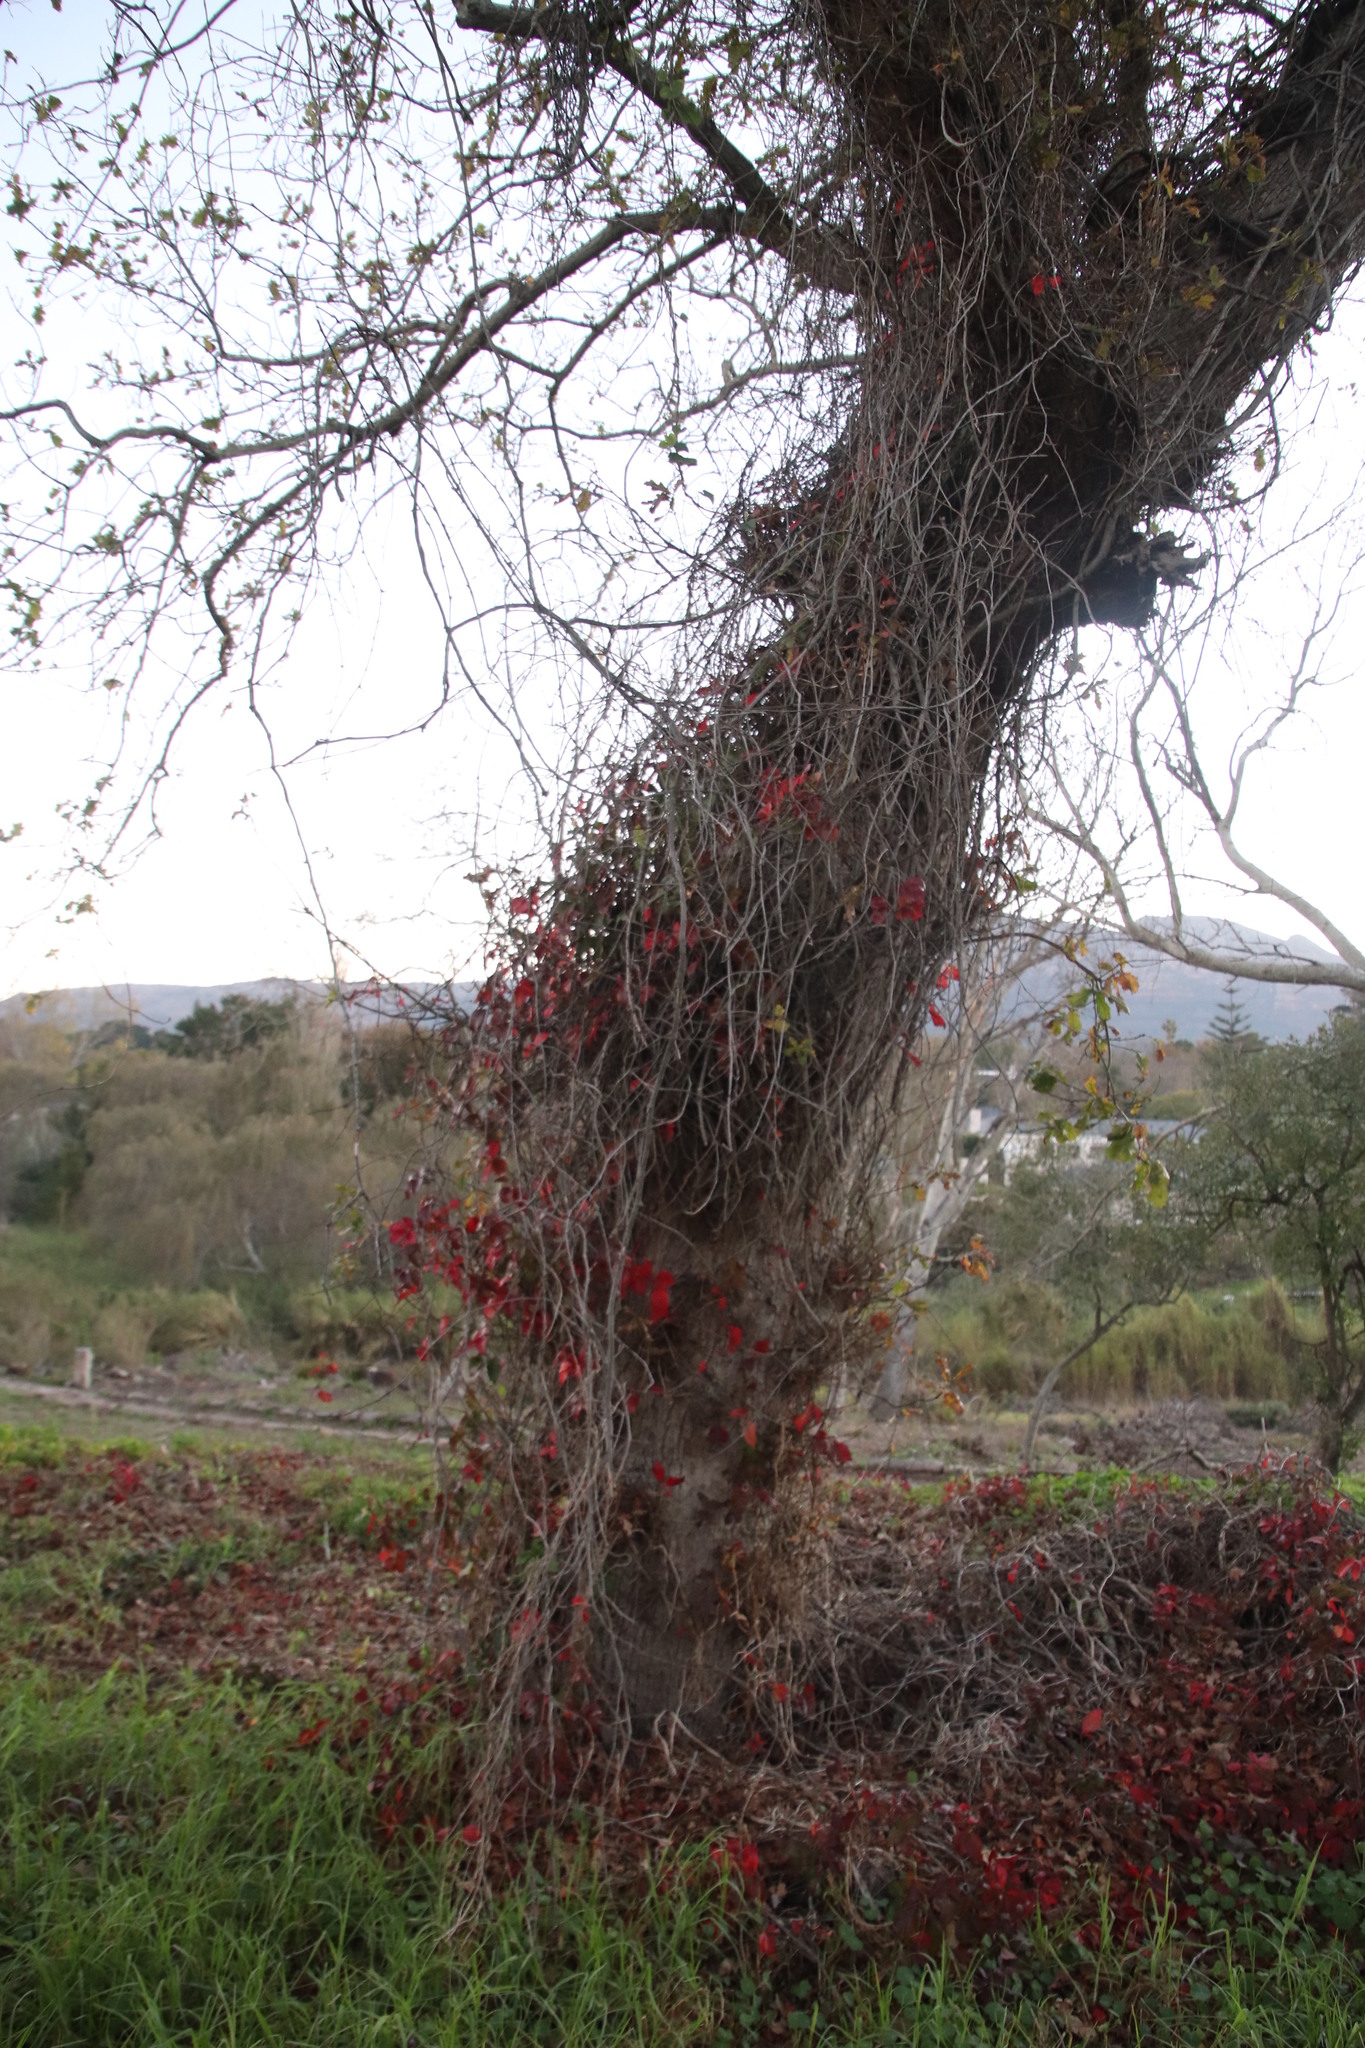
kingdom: Plantae
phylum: Tracheophyta
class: Magnoliopsida
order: Vitales
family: Vitaceae
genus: Parthenocissus
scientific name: Parthenocissus quinquefolia
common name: Virginia-creeper
